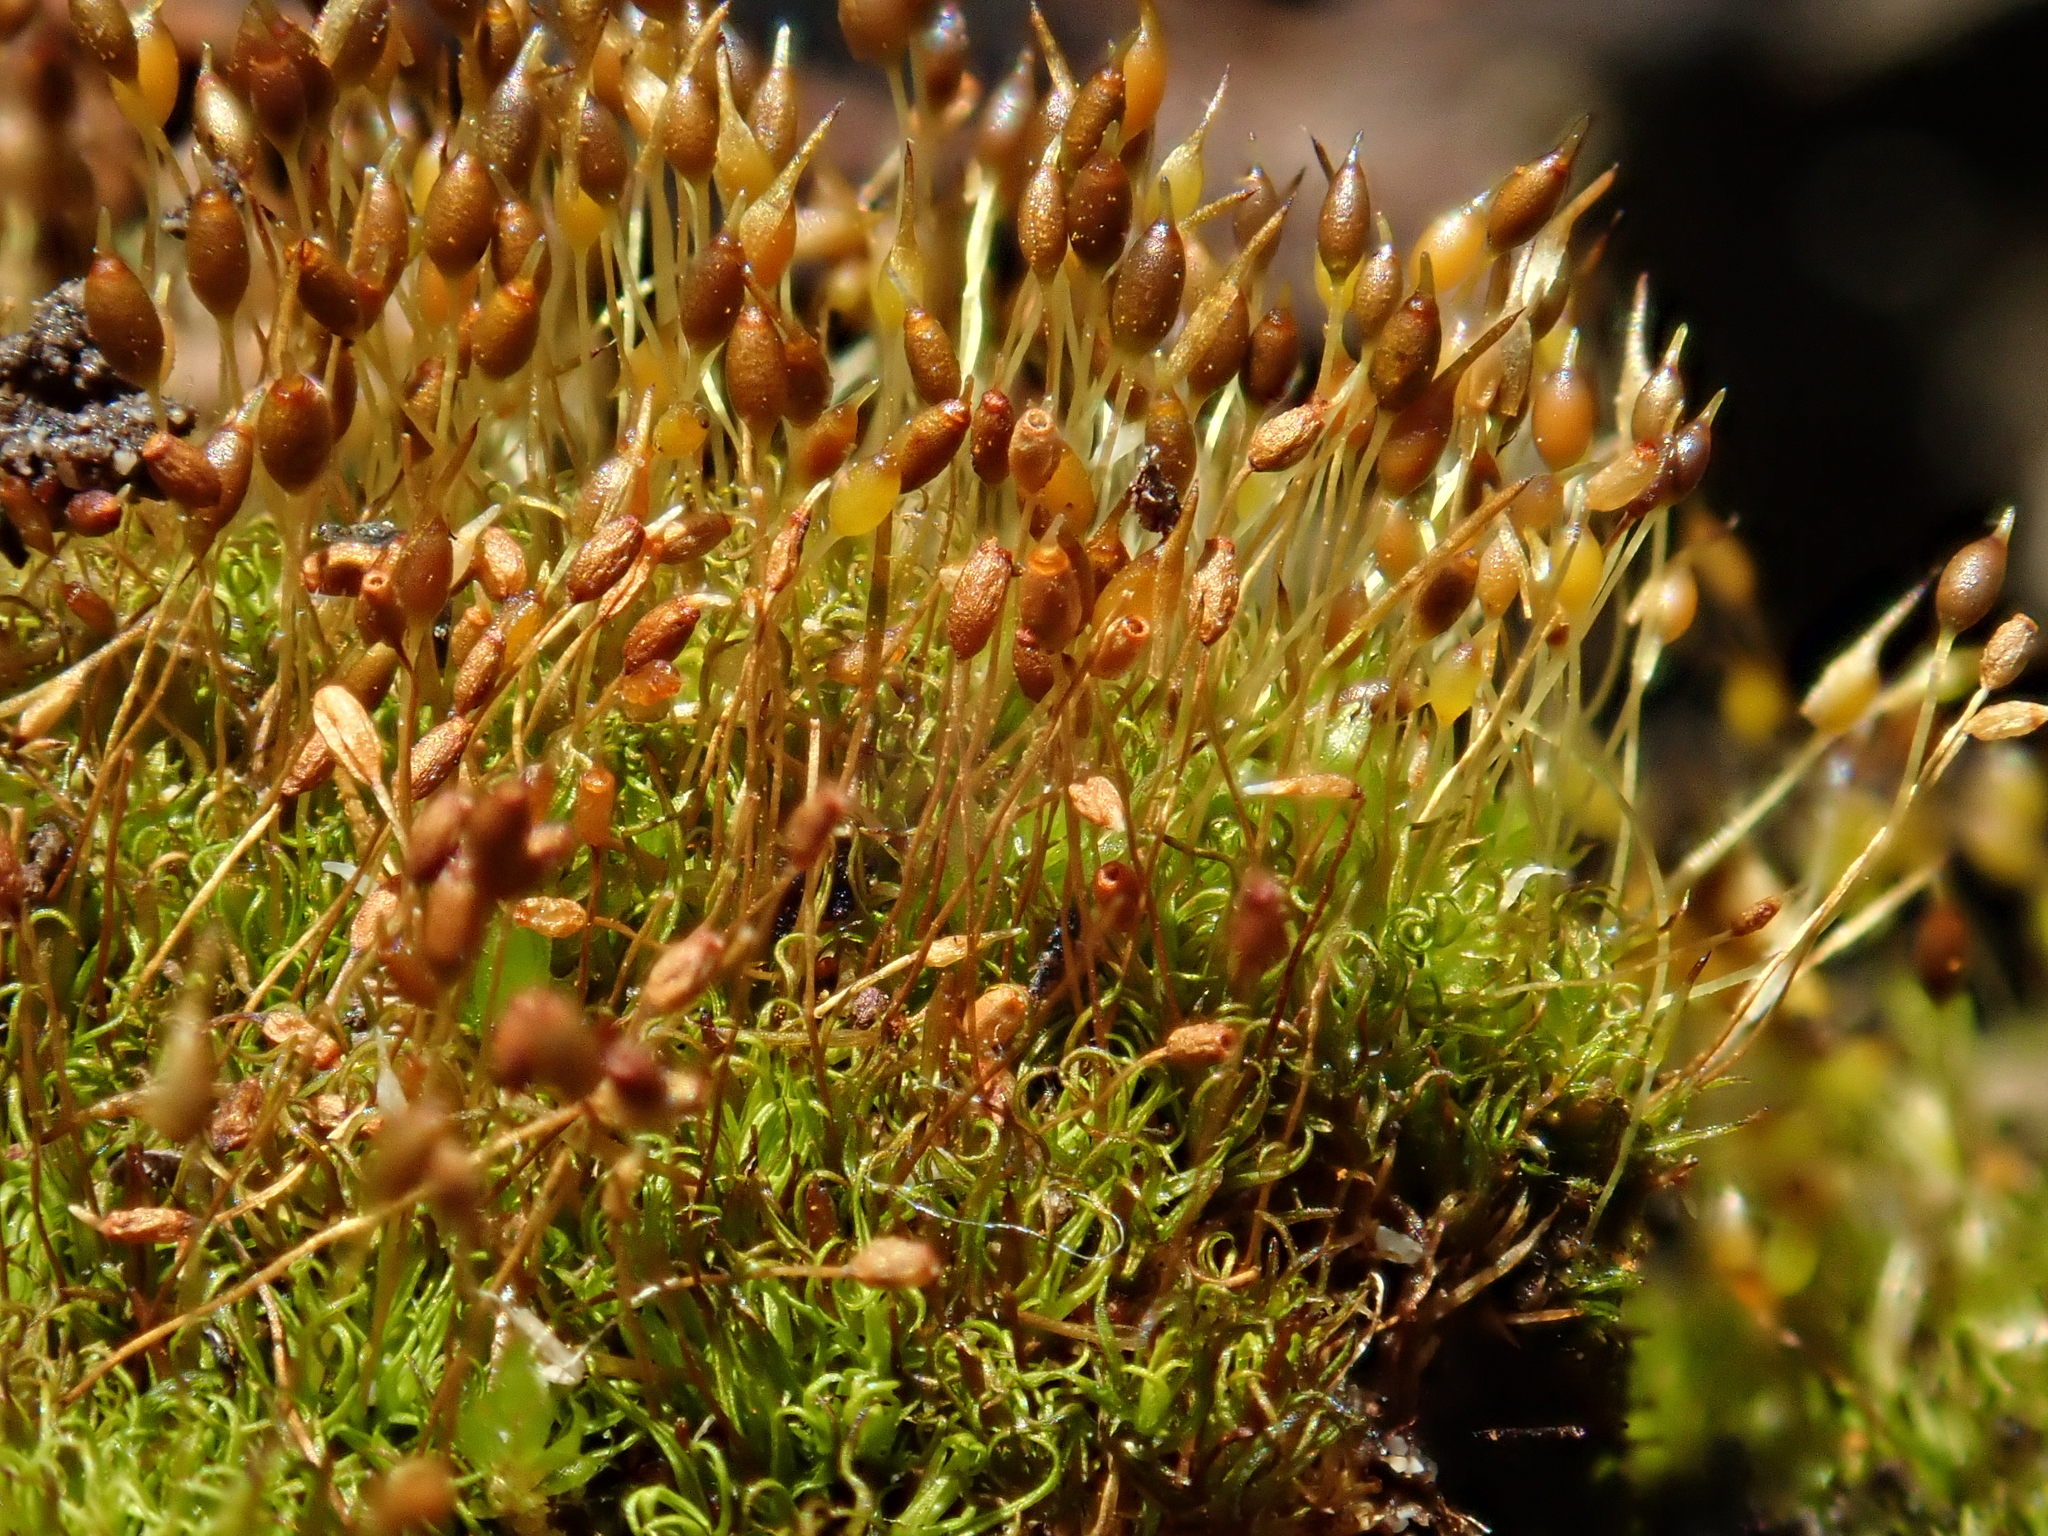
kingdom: Plantae
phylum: Bryophyta
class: Bryopsida
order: Pottiales
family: Pottiaceae
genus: Weissia
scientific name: Weissia brachycarpa
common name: Small-mouthed beardless-moss
